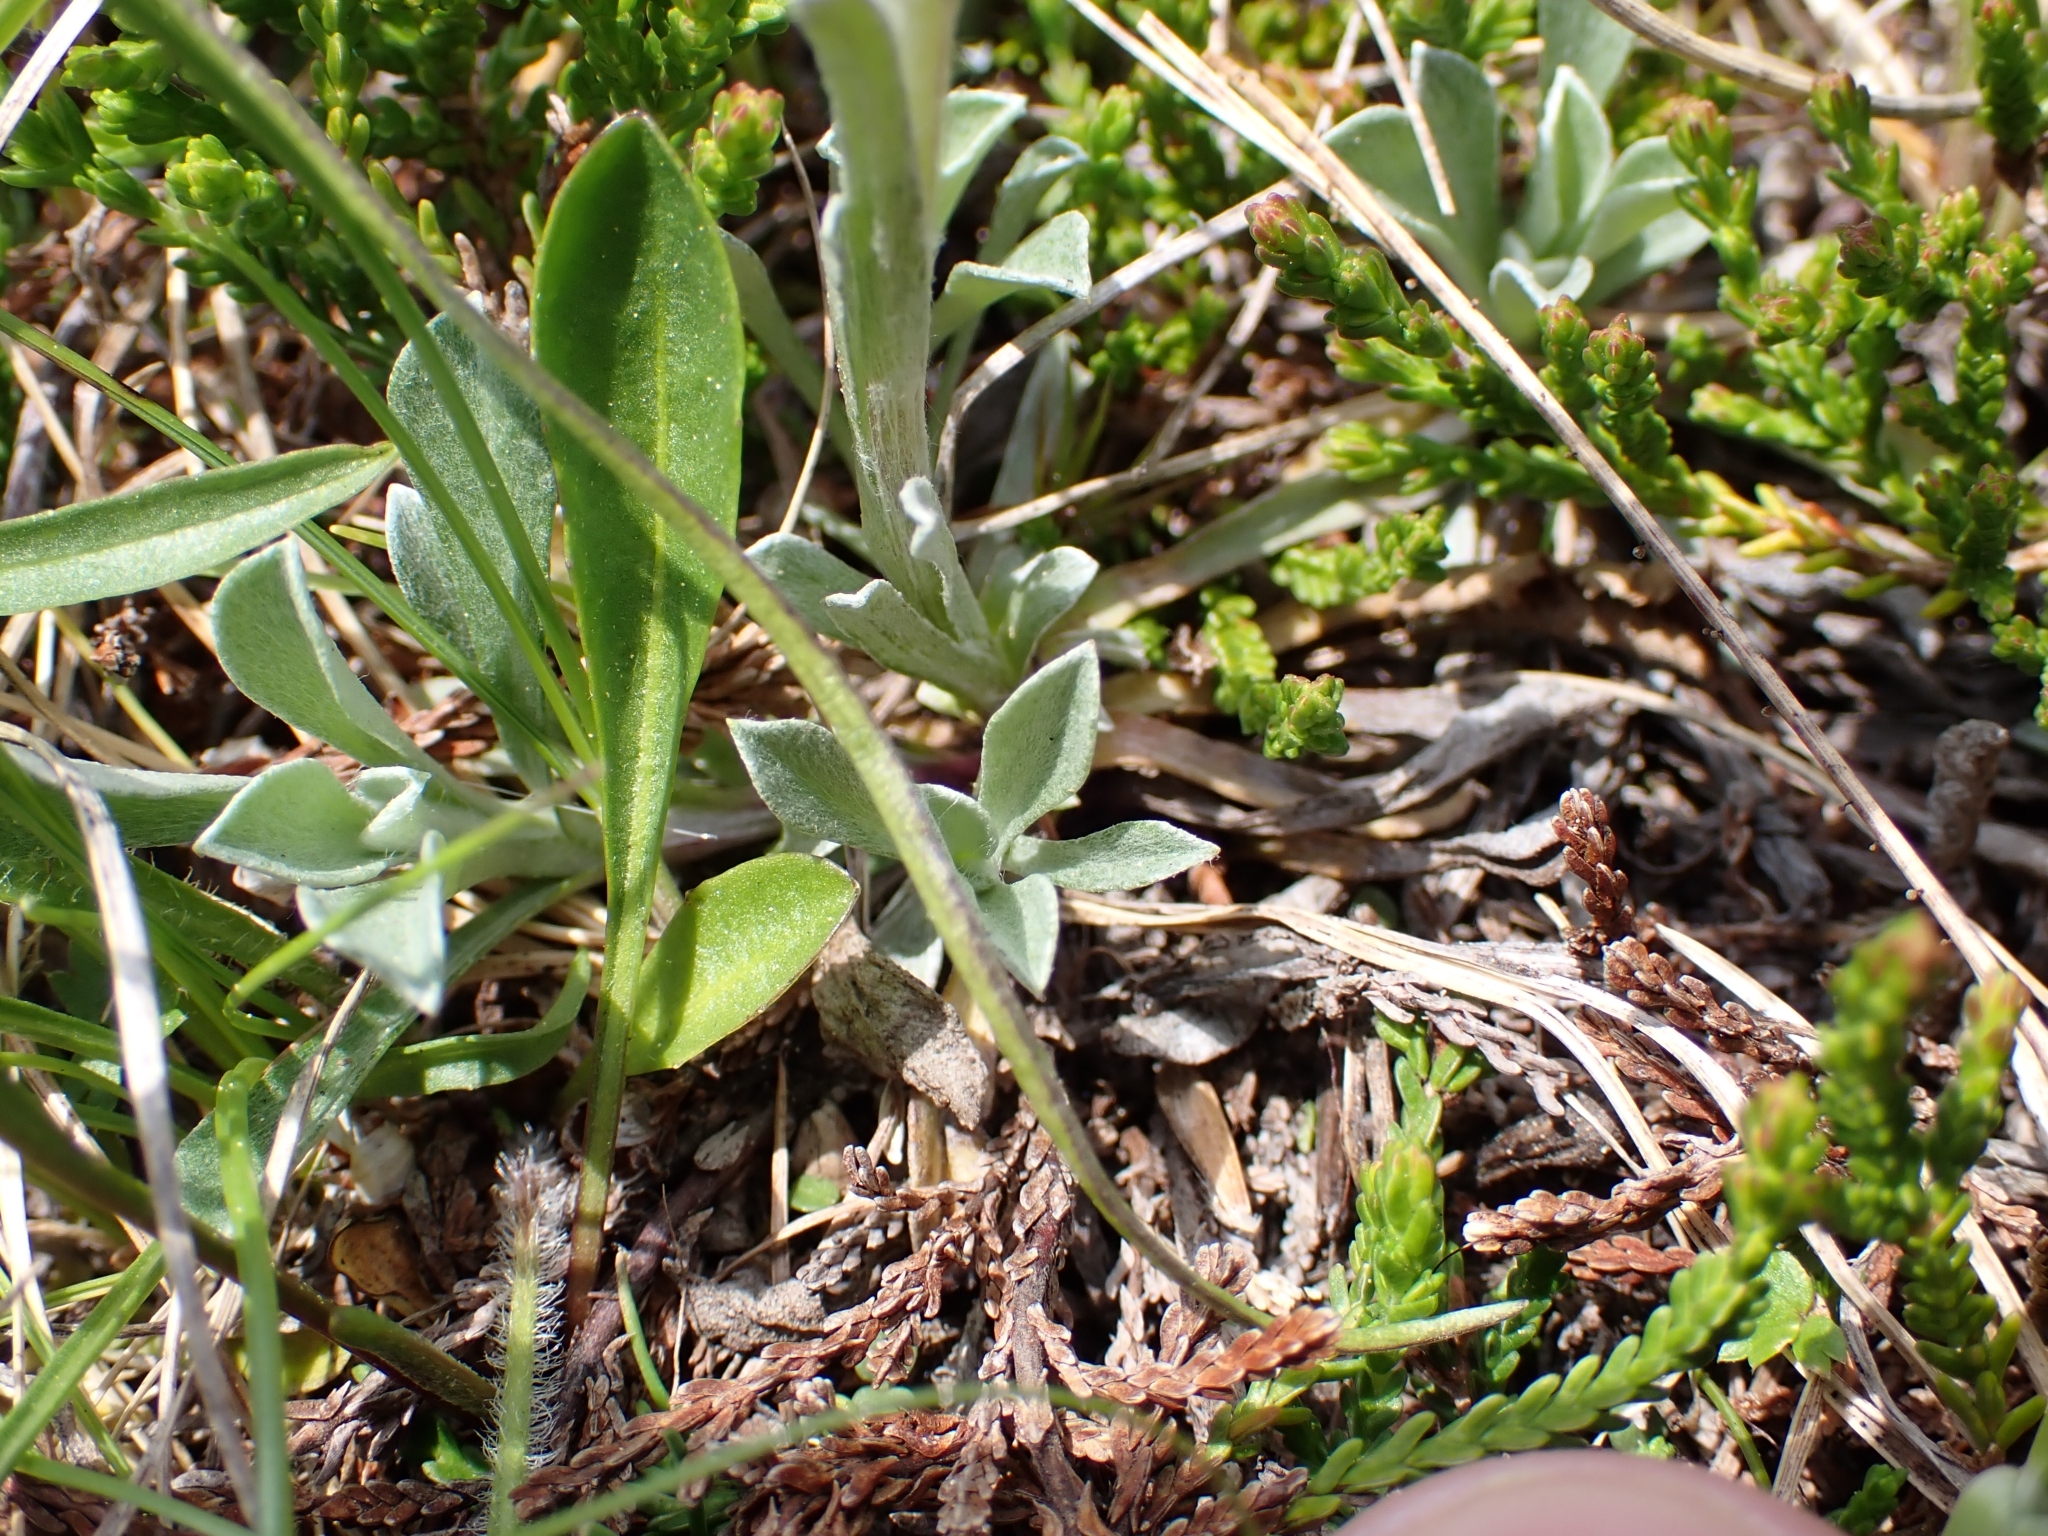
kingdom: Plantae
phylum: Tracheophyta
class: Magnoliopsida
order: Asterales
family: Asteraceae
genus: Antennaria
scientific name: Antennaria dioica
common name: Mountain everlasting
